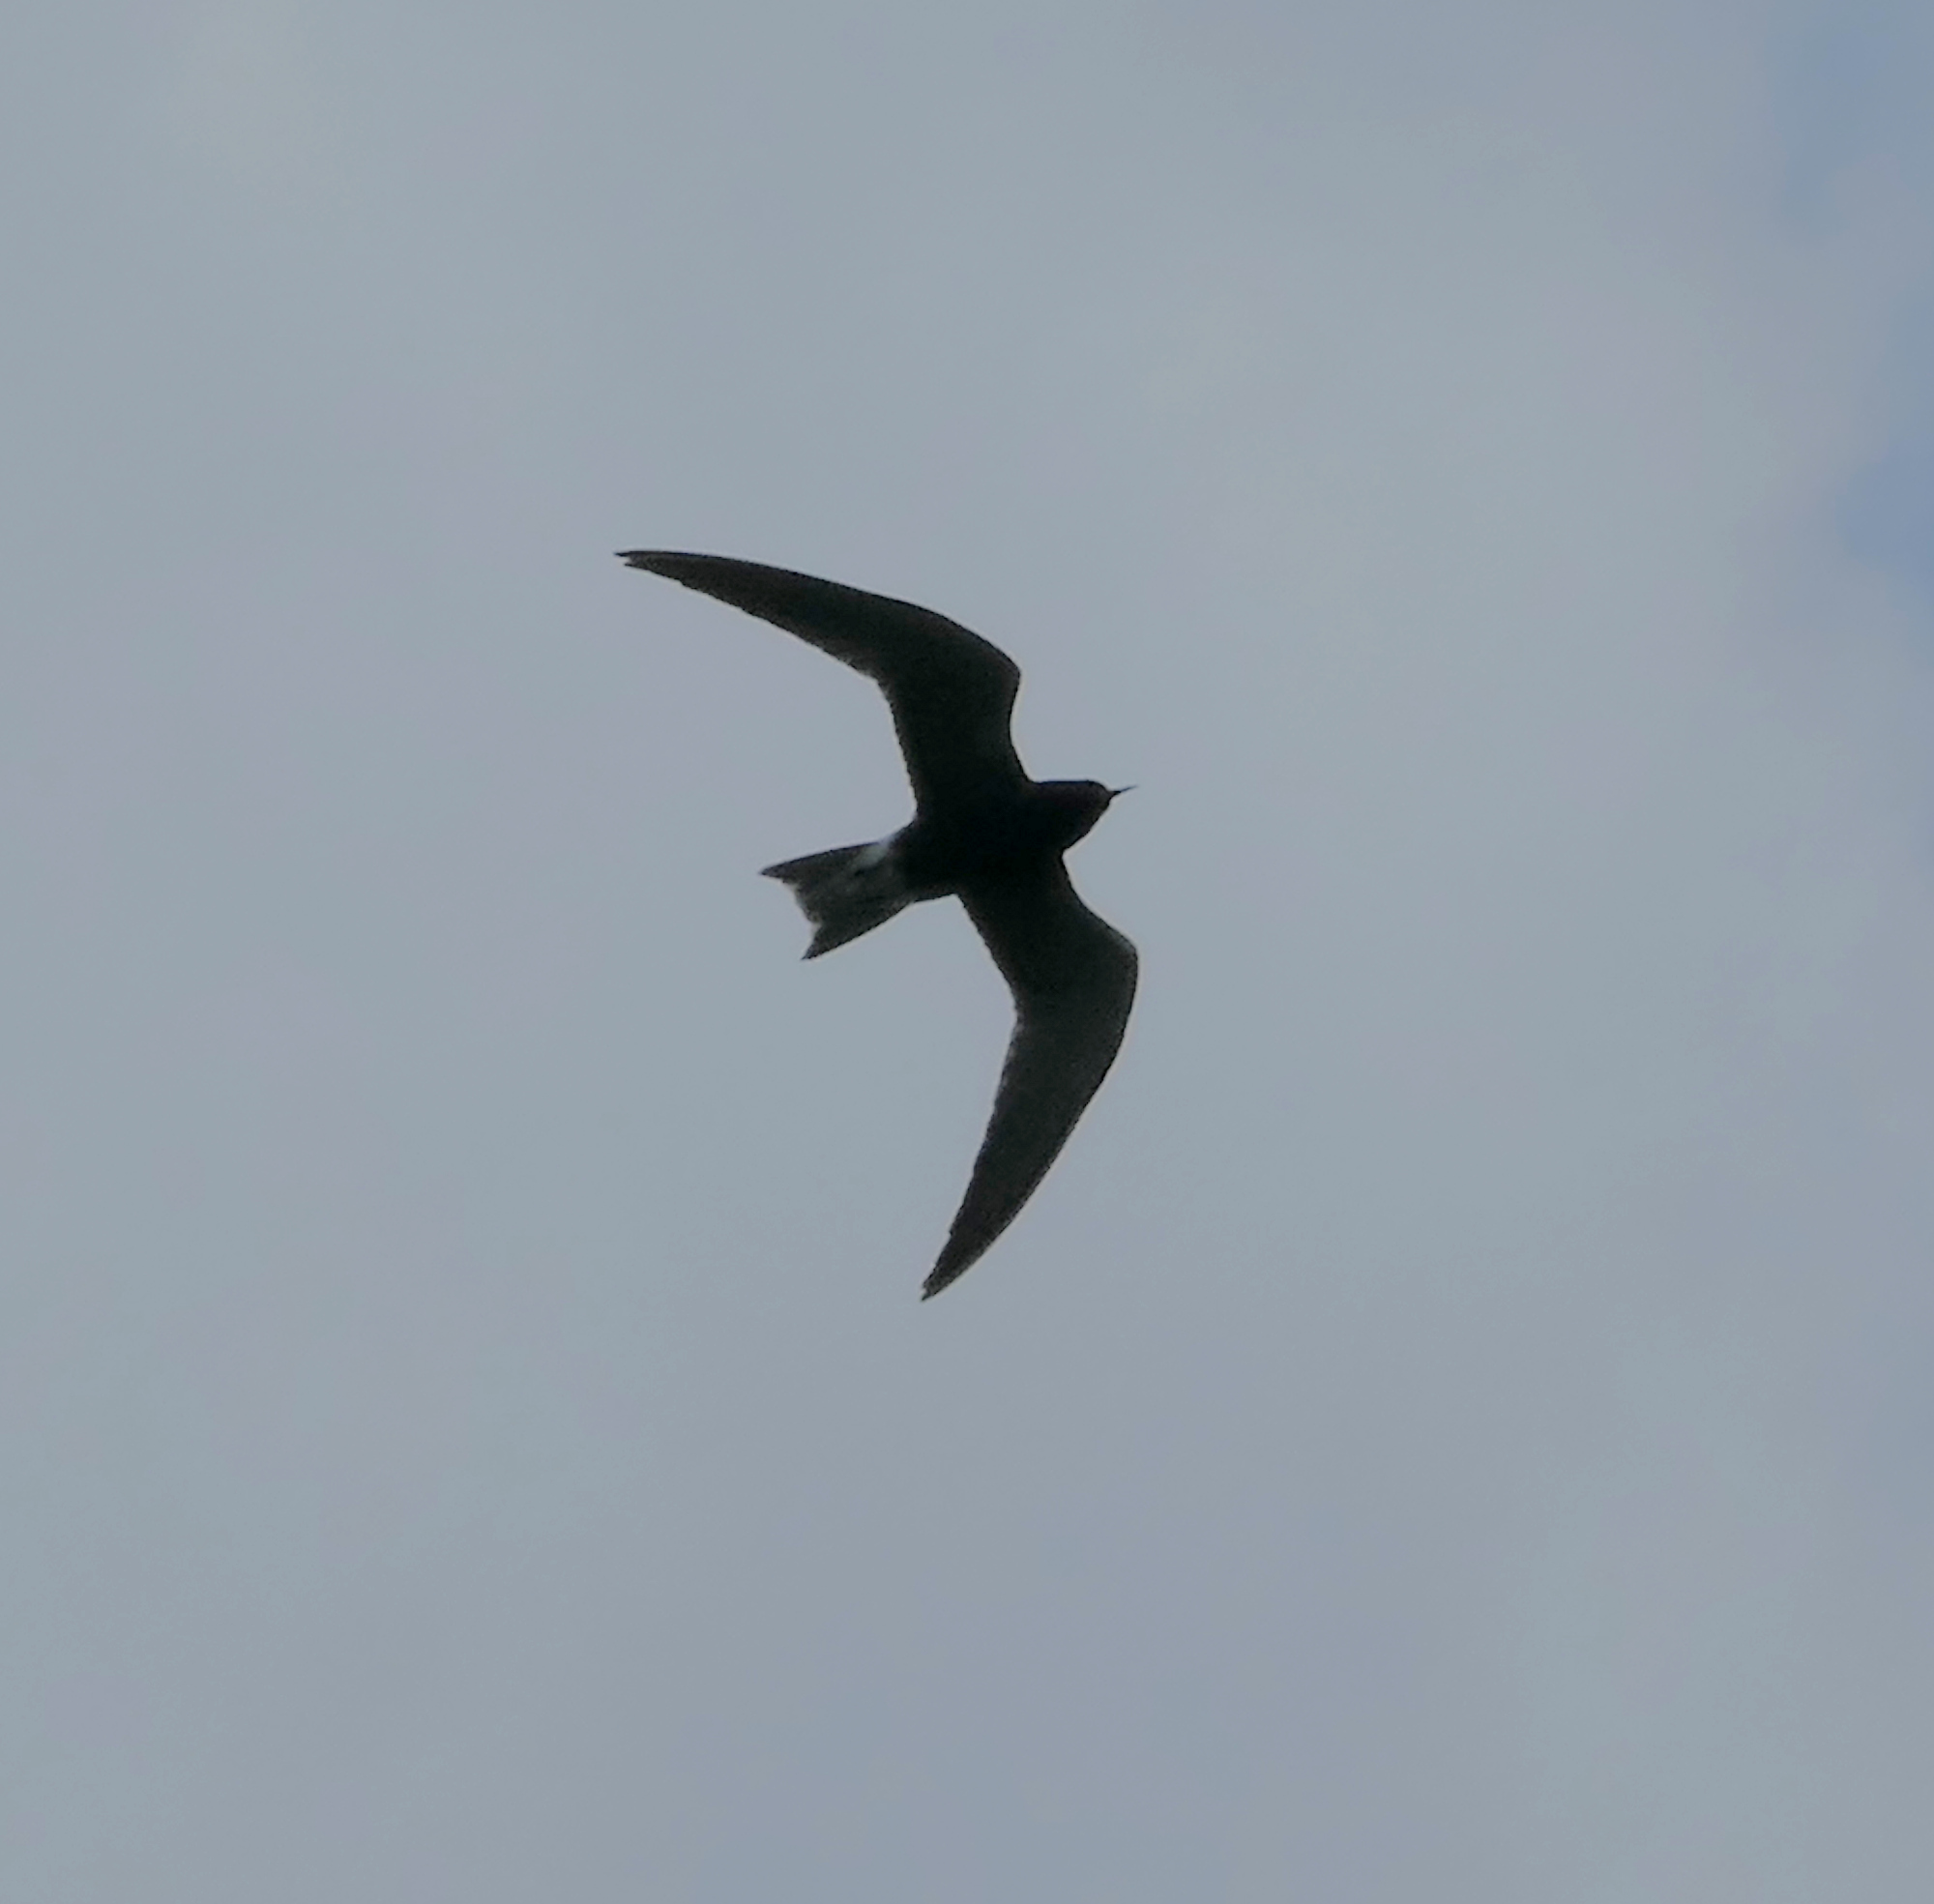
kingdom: Animalia
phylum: Chordata
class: Aves
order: Charadriiformes
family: Laridae
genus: Chlidonias
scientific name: Chlidonias niger
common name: Black tern
